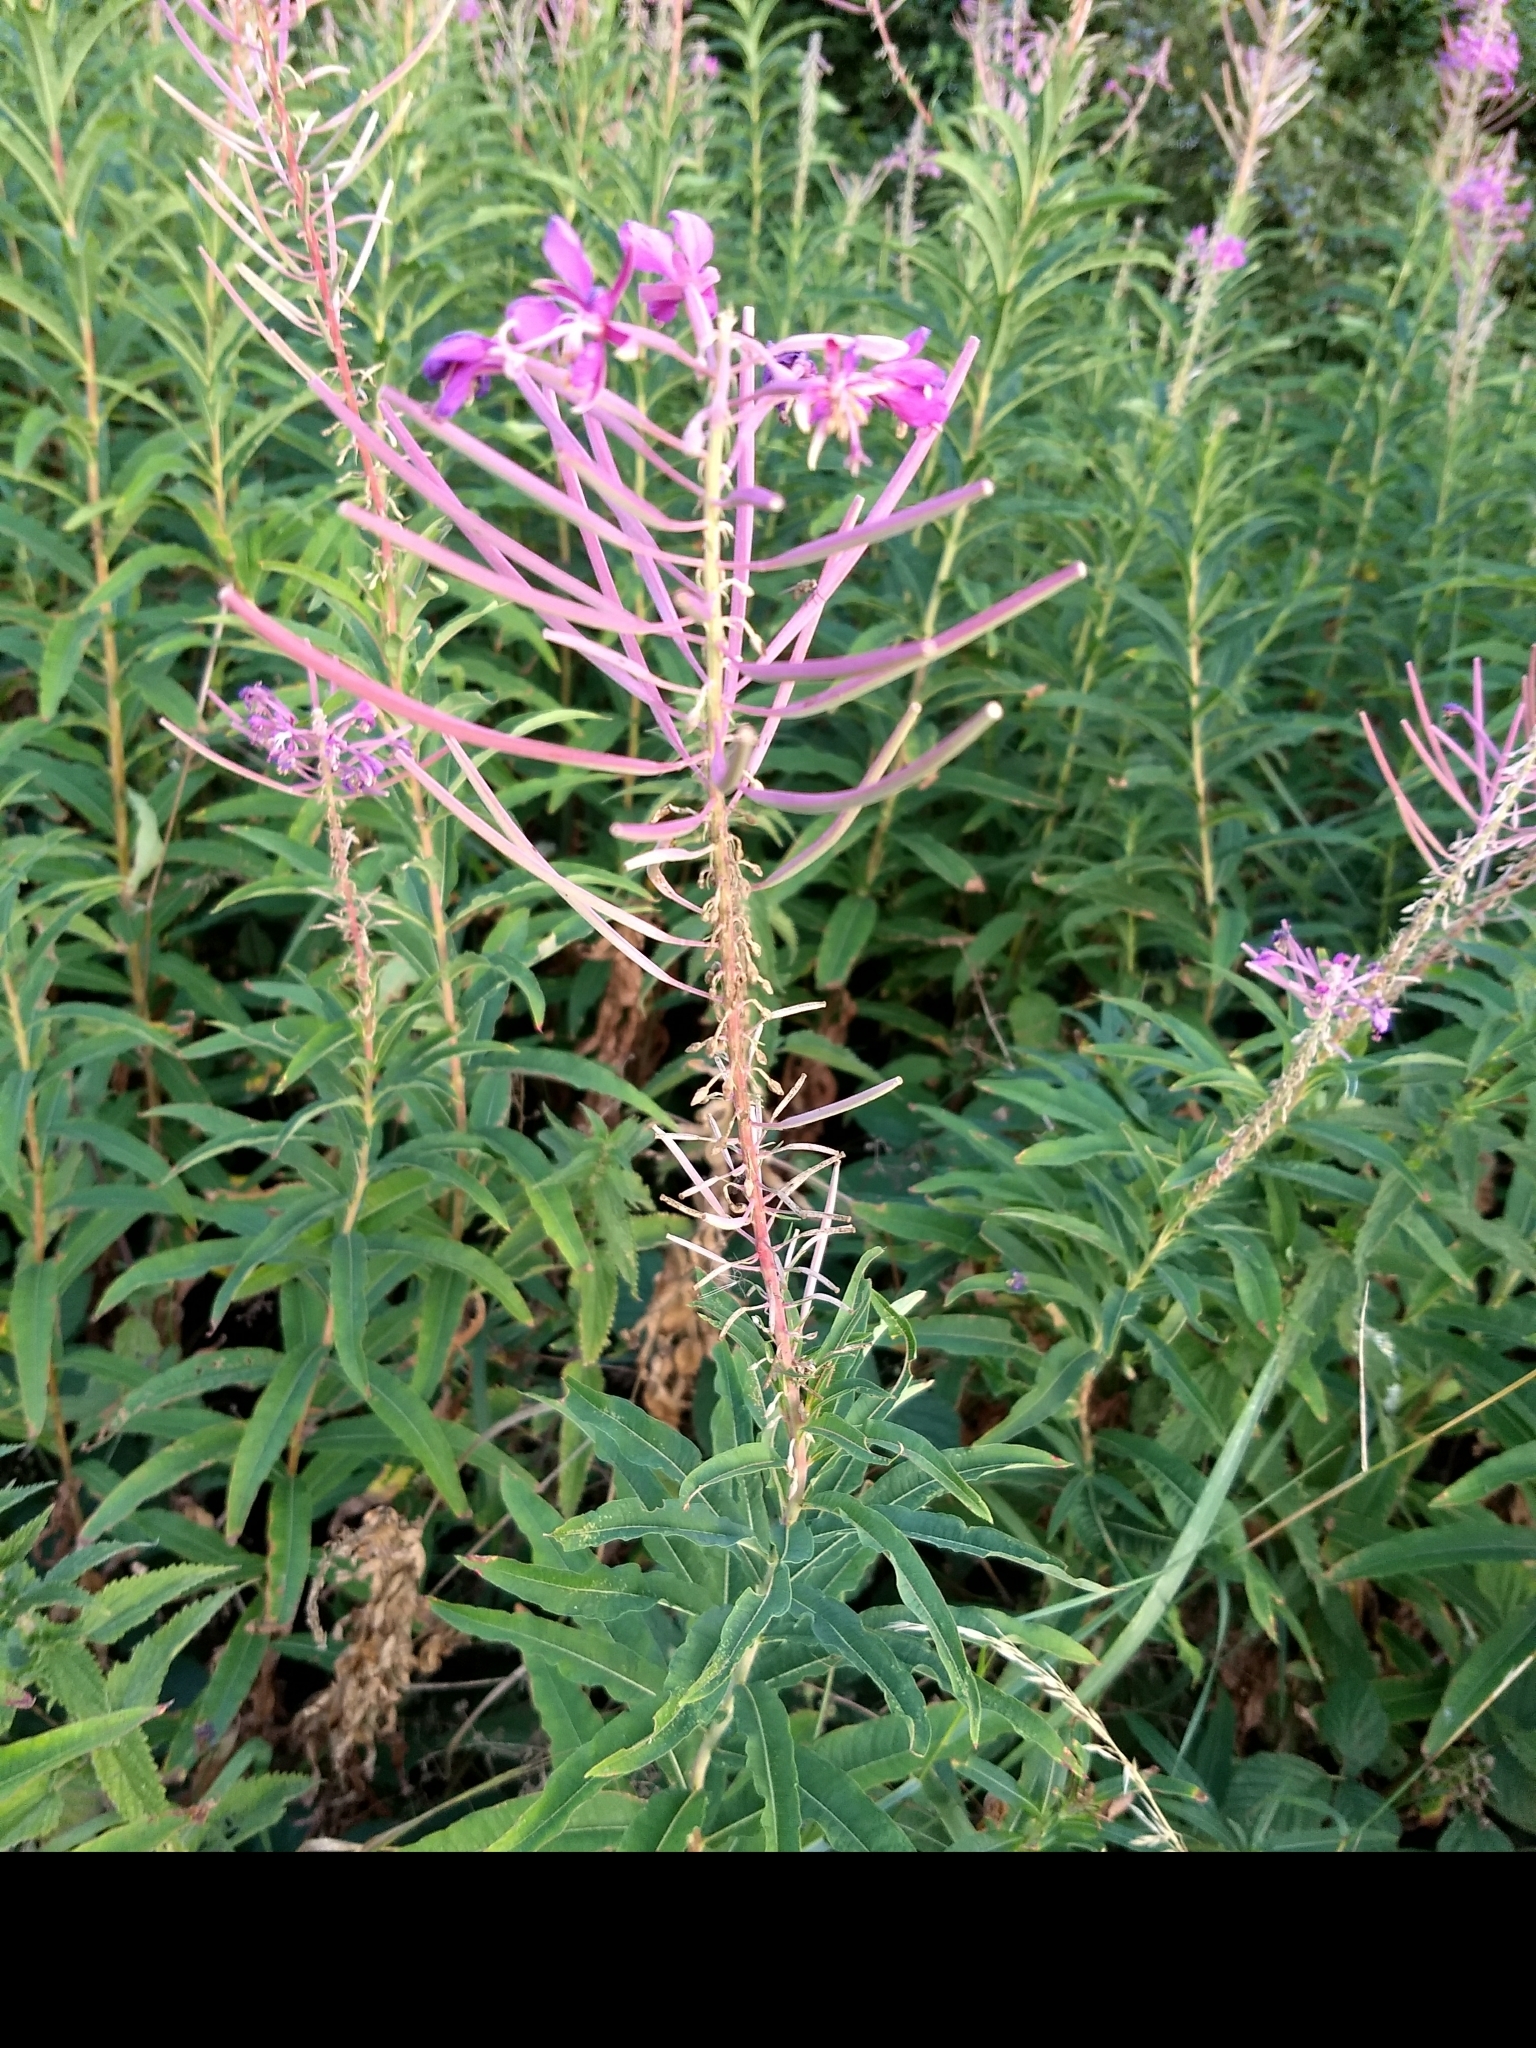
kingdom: Plantae
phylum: Tracheophyta
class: Magnoliopsida
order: Myrtales
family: Onagraceae
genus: Chamaenerion
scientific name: Chamaenerion angustifolium
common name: Fireweed
